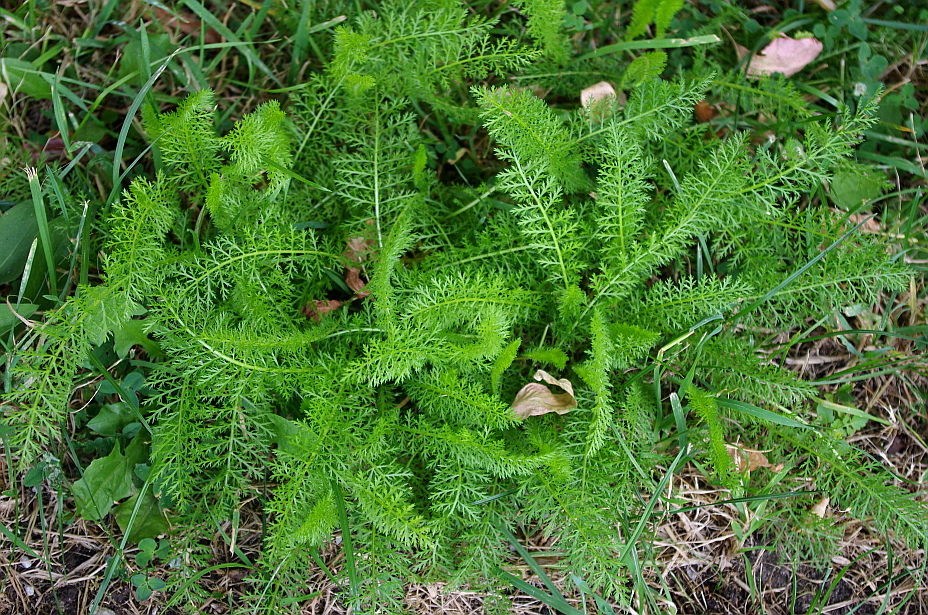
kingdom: Plantae
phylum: Tracheophyta
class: Magnoliopsida
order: Asterales
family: Asteraceae
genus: Achillea
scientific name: Achillea millefolium
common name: Yarrow
